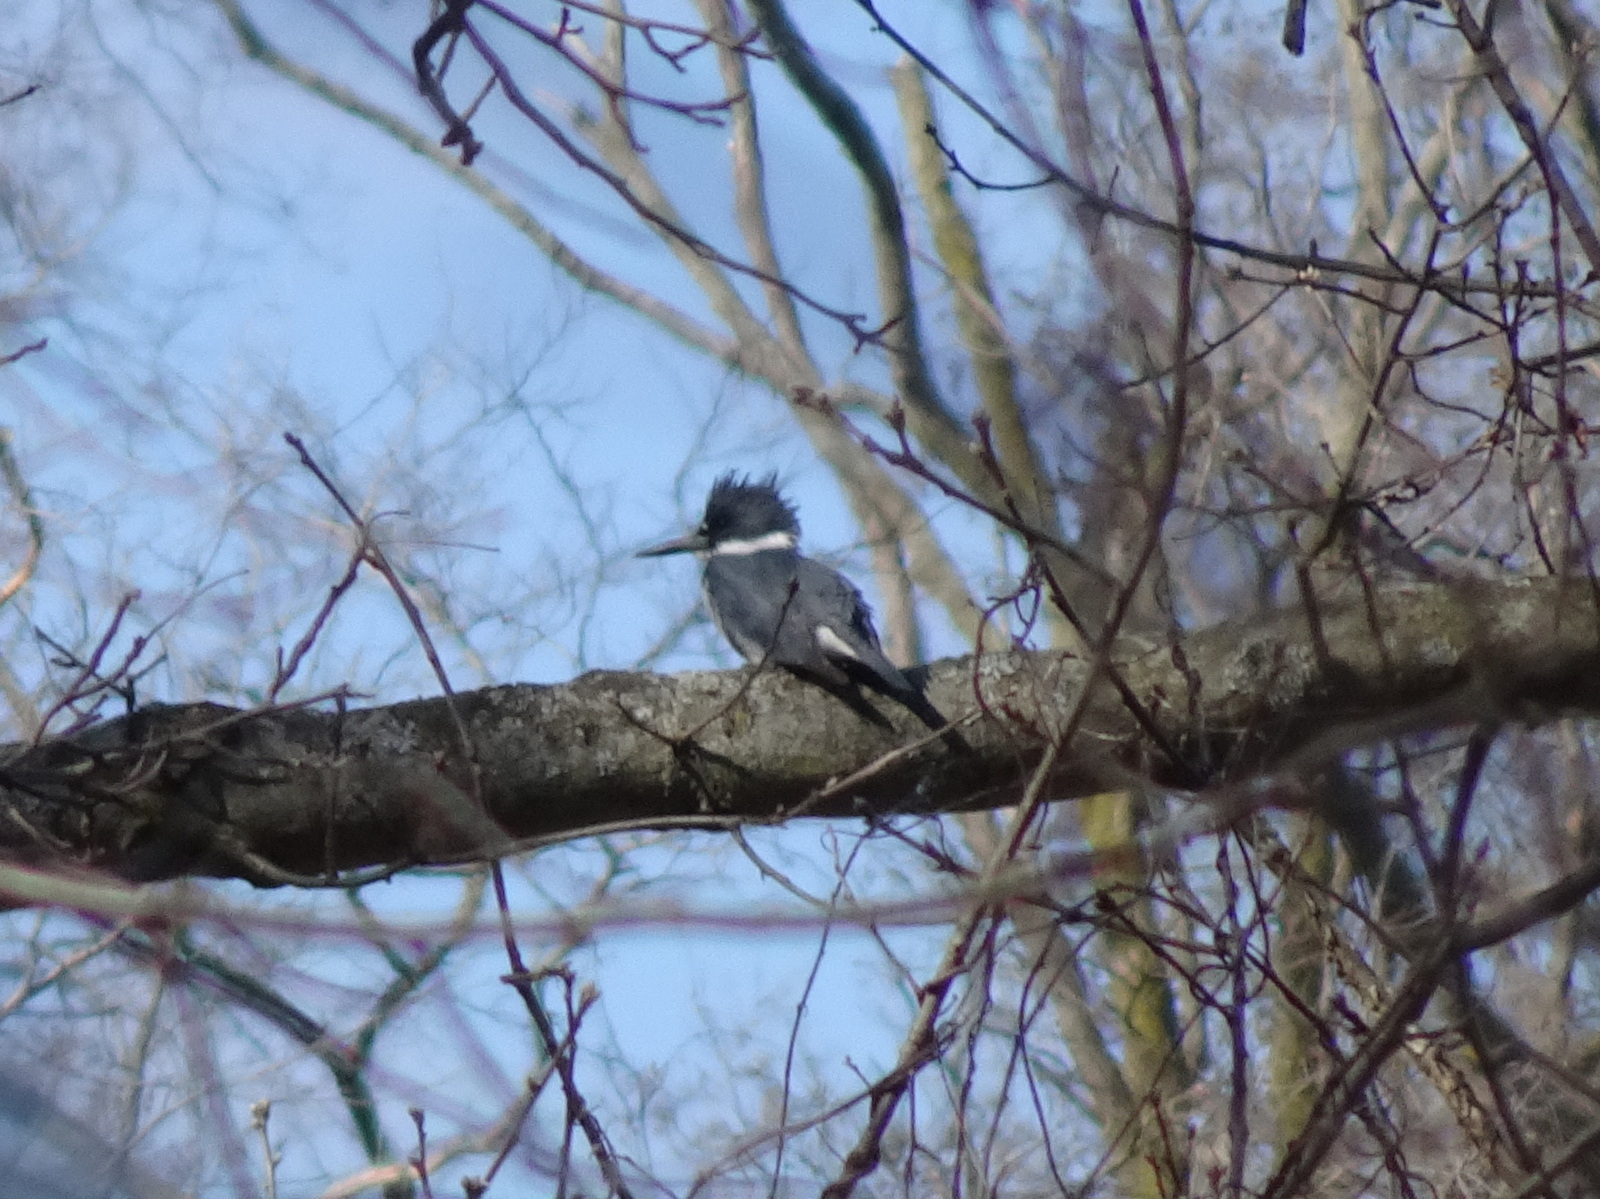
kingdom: Animalia
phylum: Chordata
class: Aves
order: Coraciiformes
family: Alcedinidae
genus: Megaceryle
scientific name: Megaceryle alcyon
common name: Belted kingfisher
